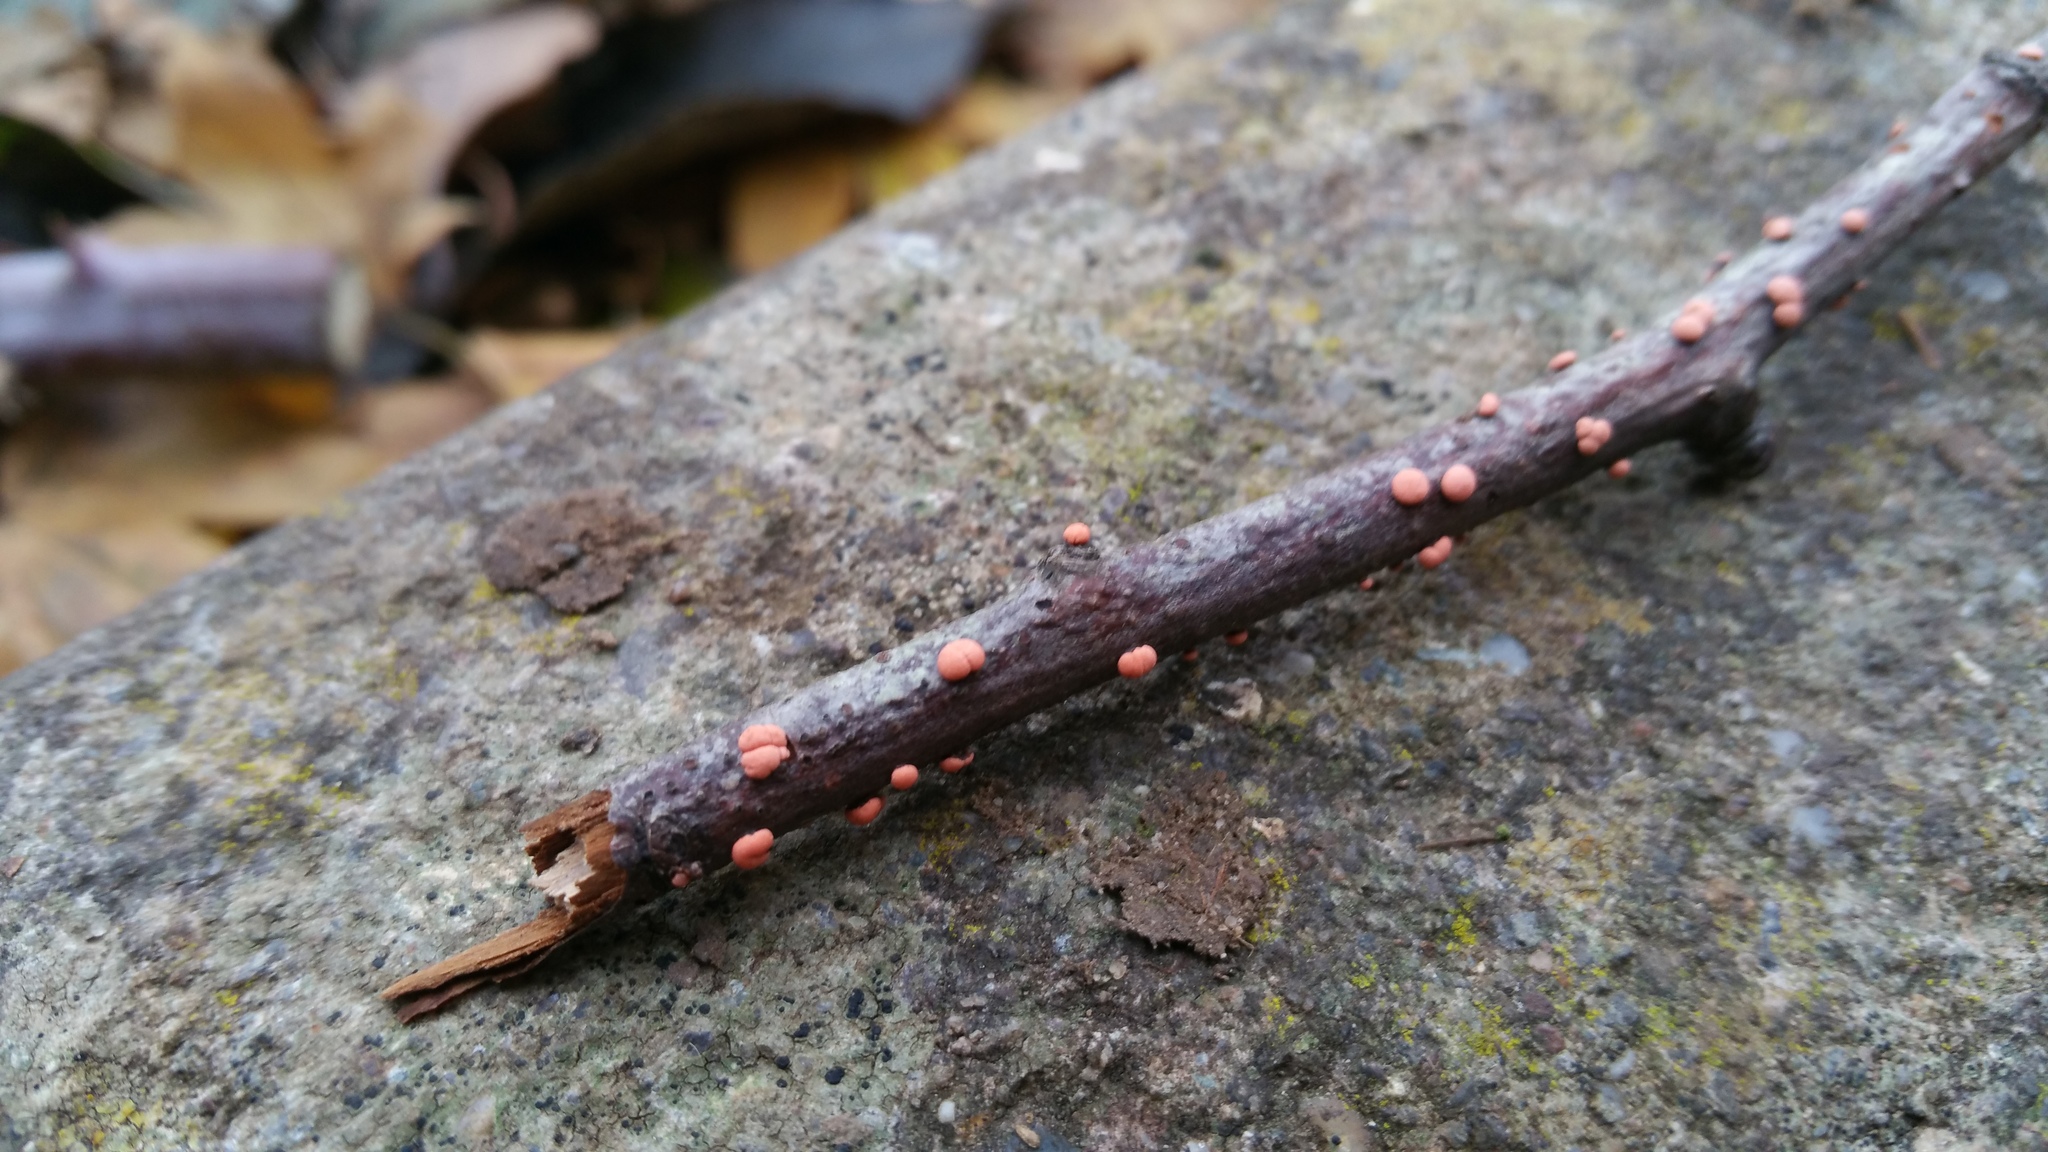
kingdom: Fungi
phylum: Ascomycota
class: Sordariomycetes
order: Hypocreales
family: Nectriaceae
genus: Nectria
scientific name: Nectria cinnabarina
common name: Coral spot
